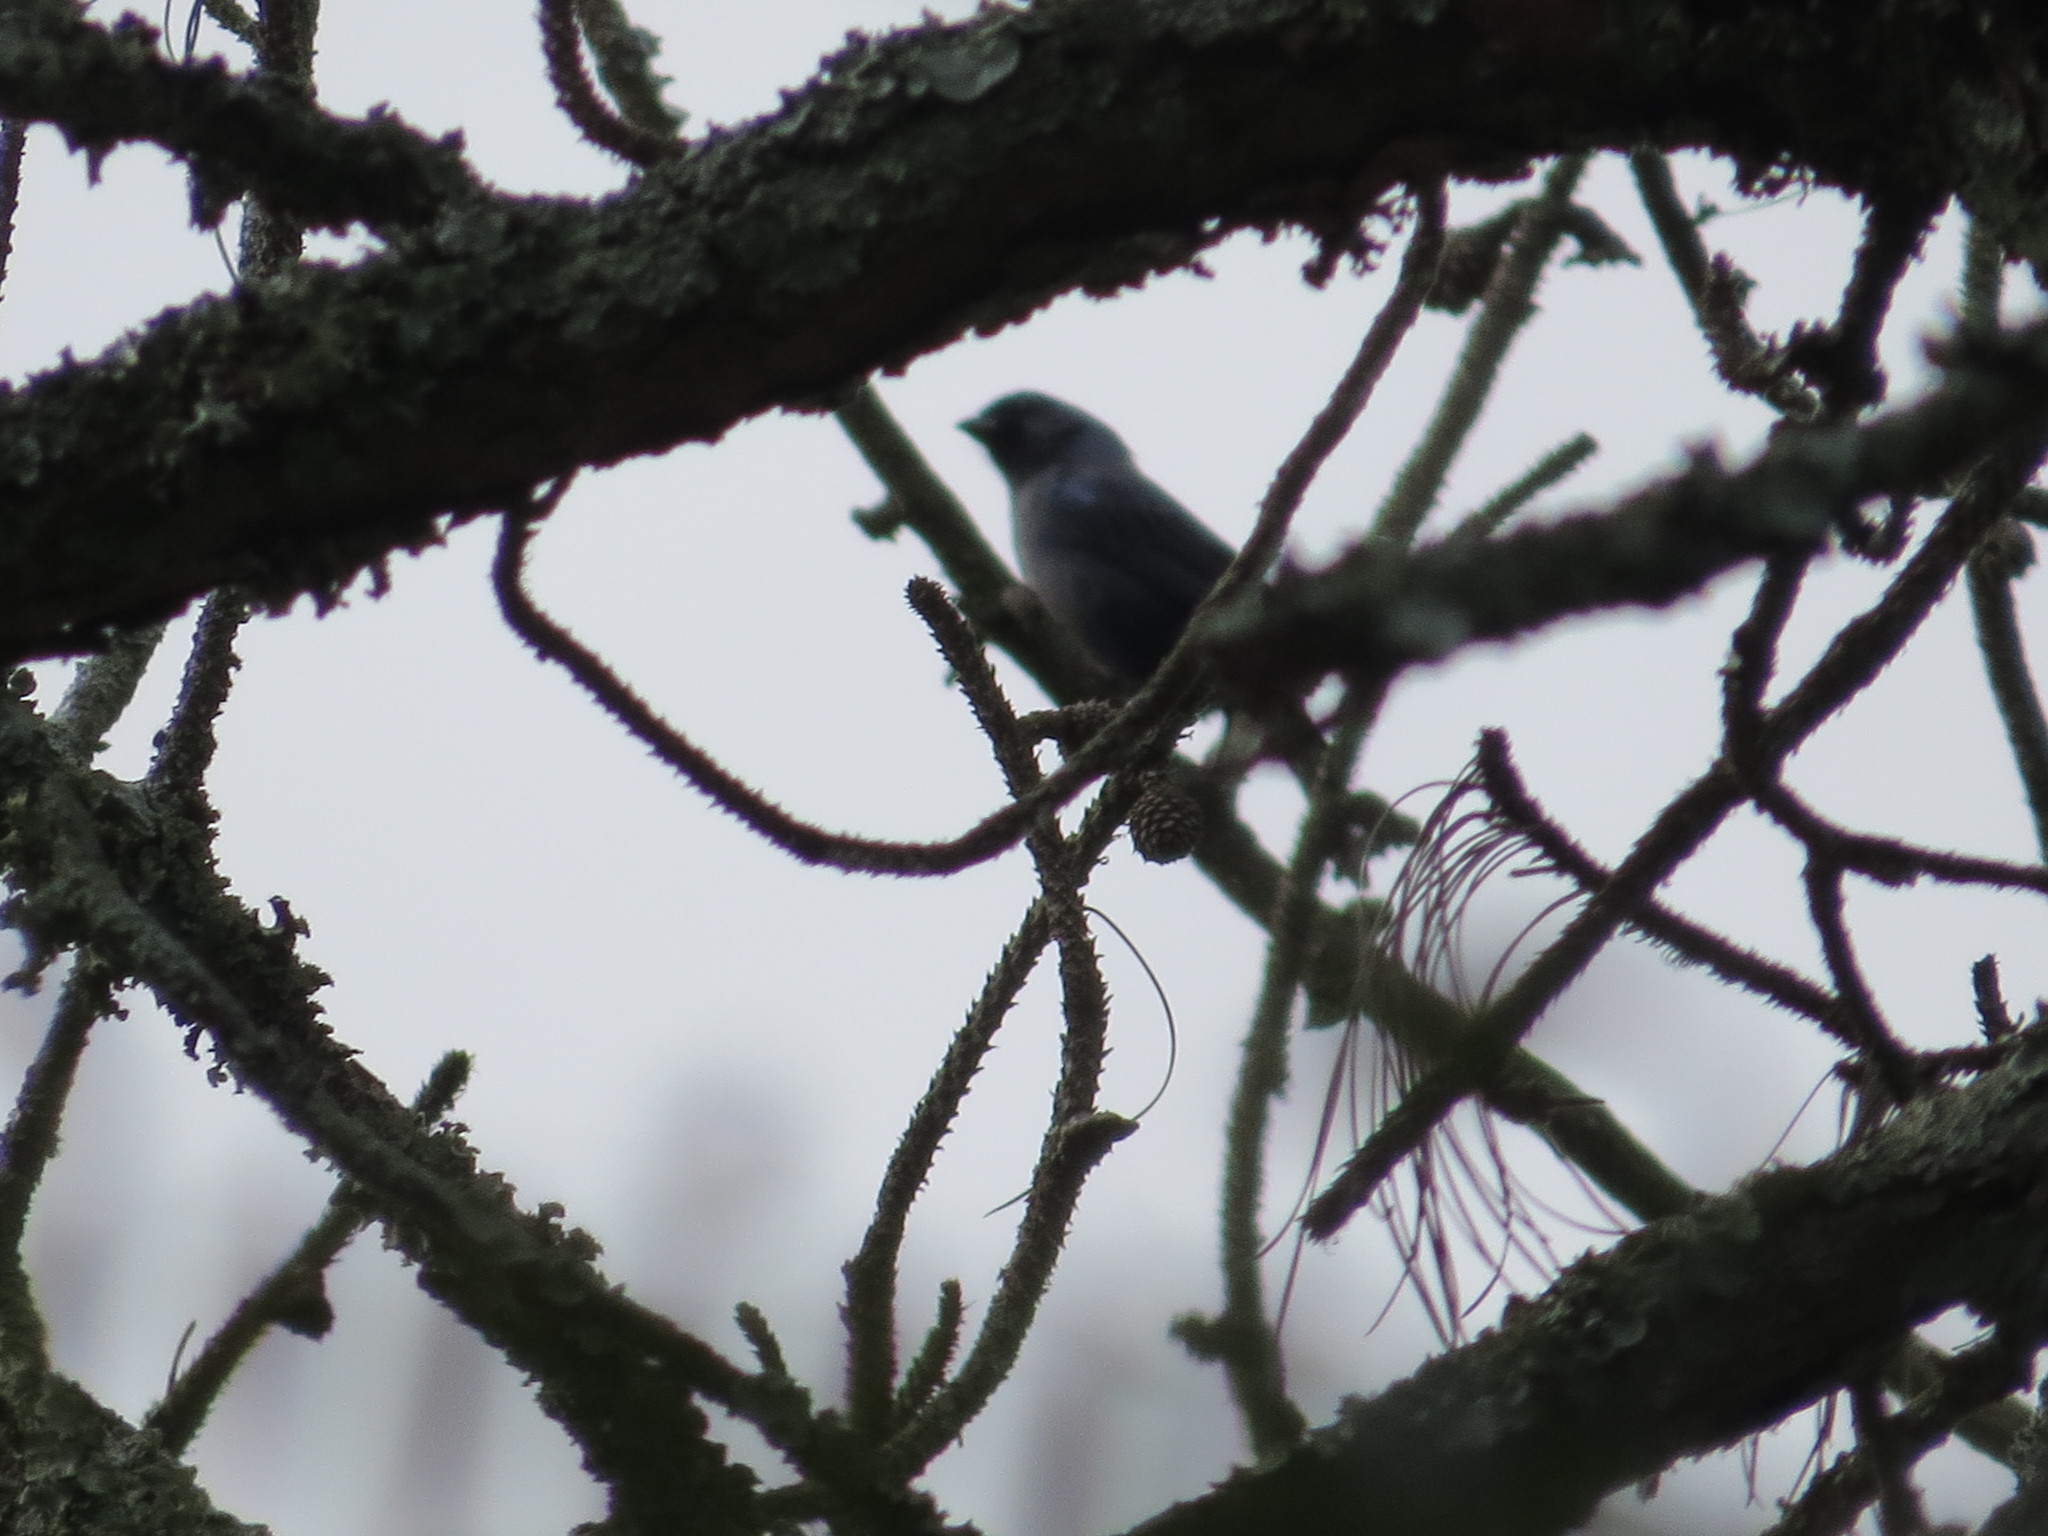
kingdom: Animalia
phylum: Chordata
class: Aves
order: Passeriformes
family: Thraupidae
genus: Stephanophorus
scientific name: Stephanophorus diadematus
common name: Diademed tanager
